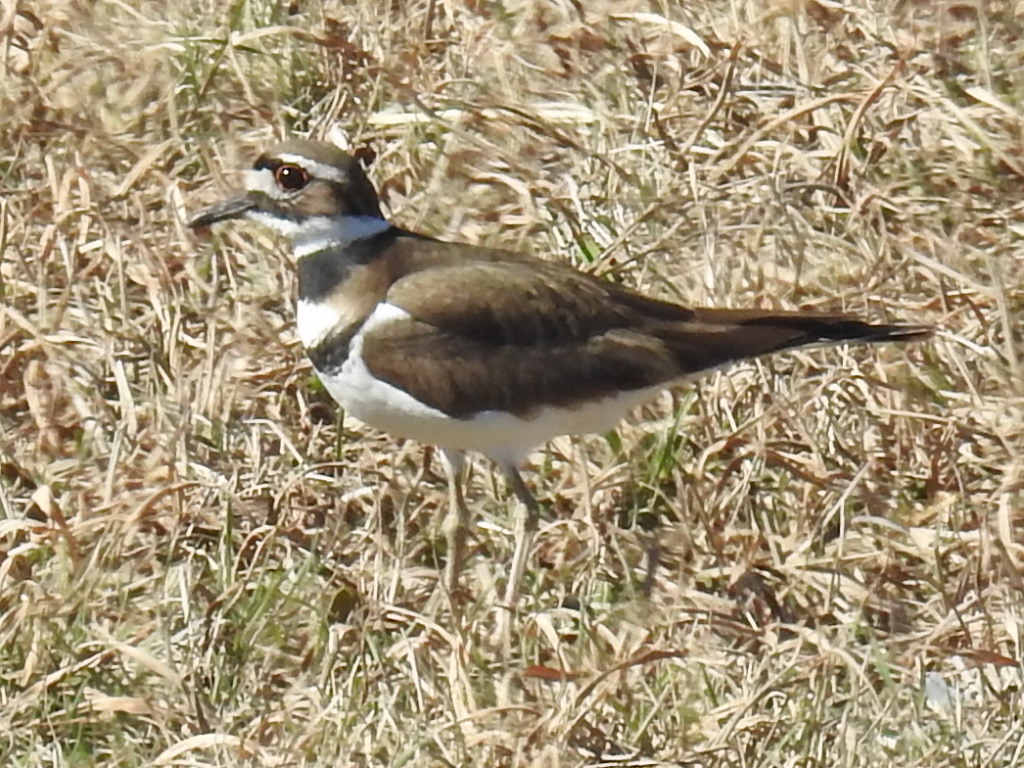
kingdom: Animalia
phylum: Chordata
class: Aves
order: Charadriiformes
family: Charadriidae
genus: Charadrius
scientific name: Charadrius vociferus
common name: Killdeer
